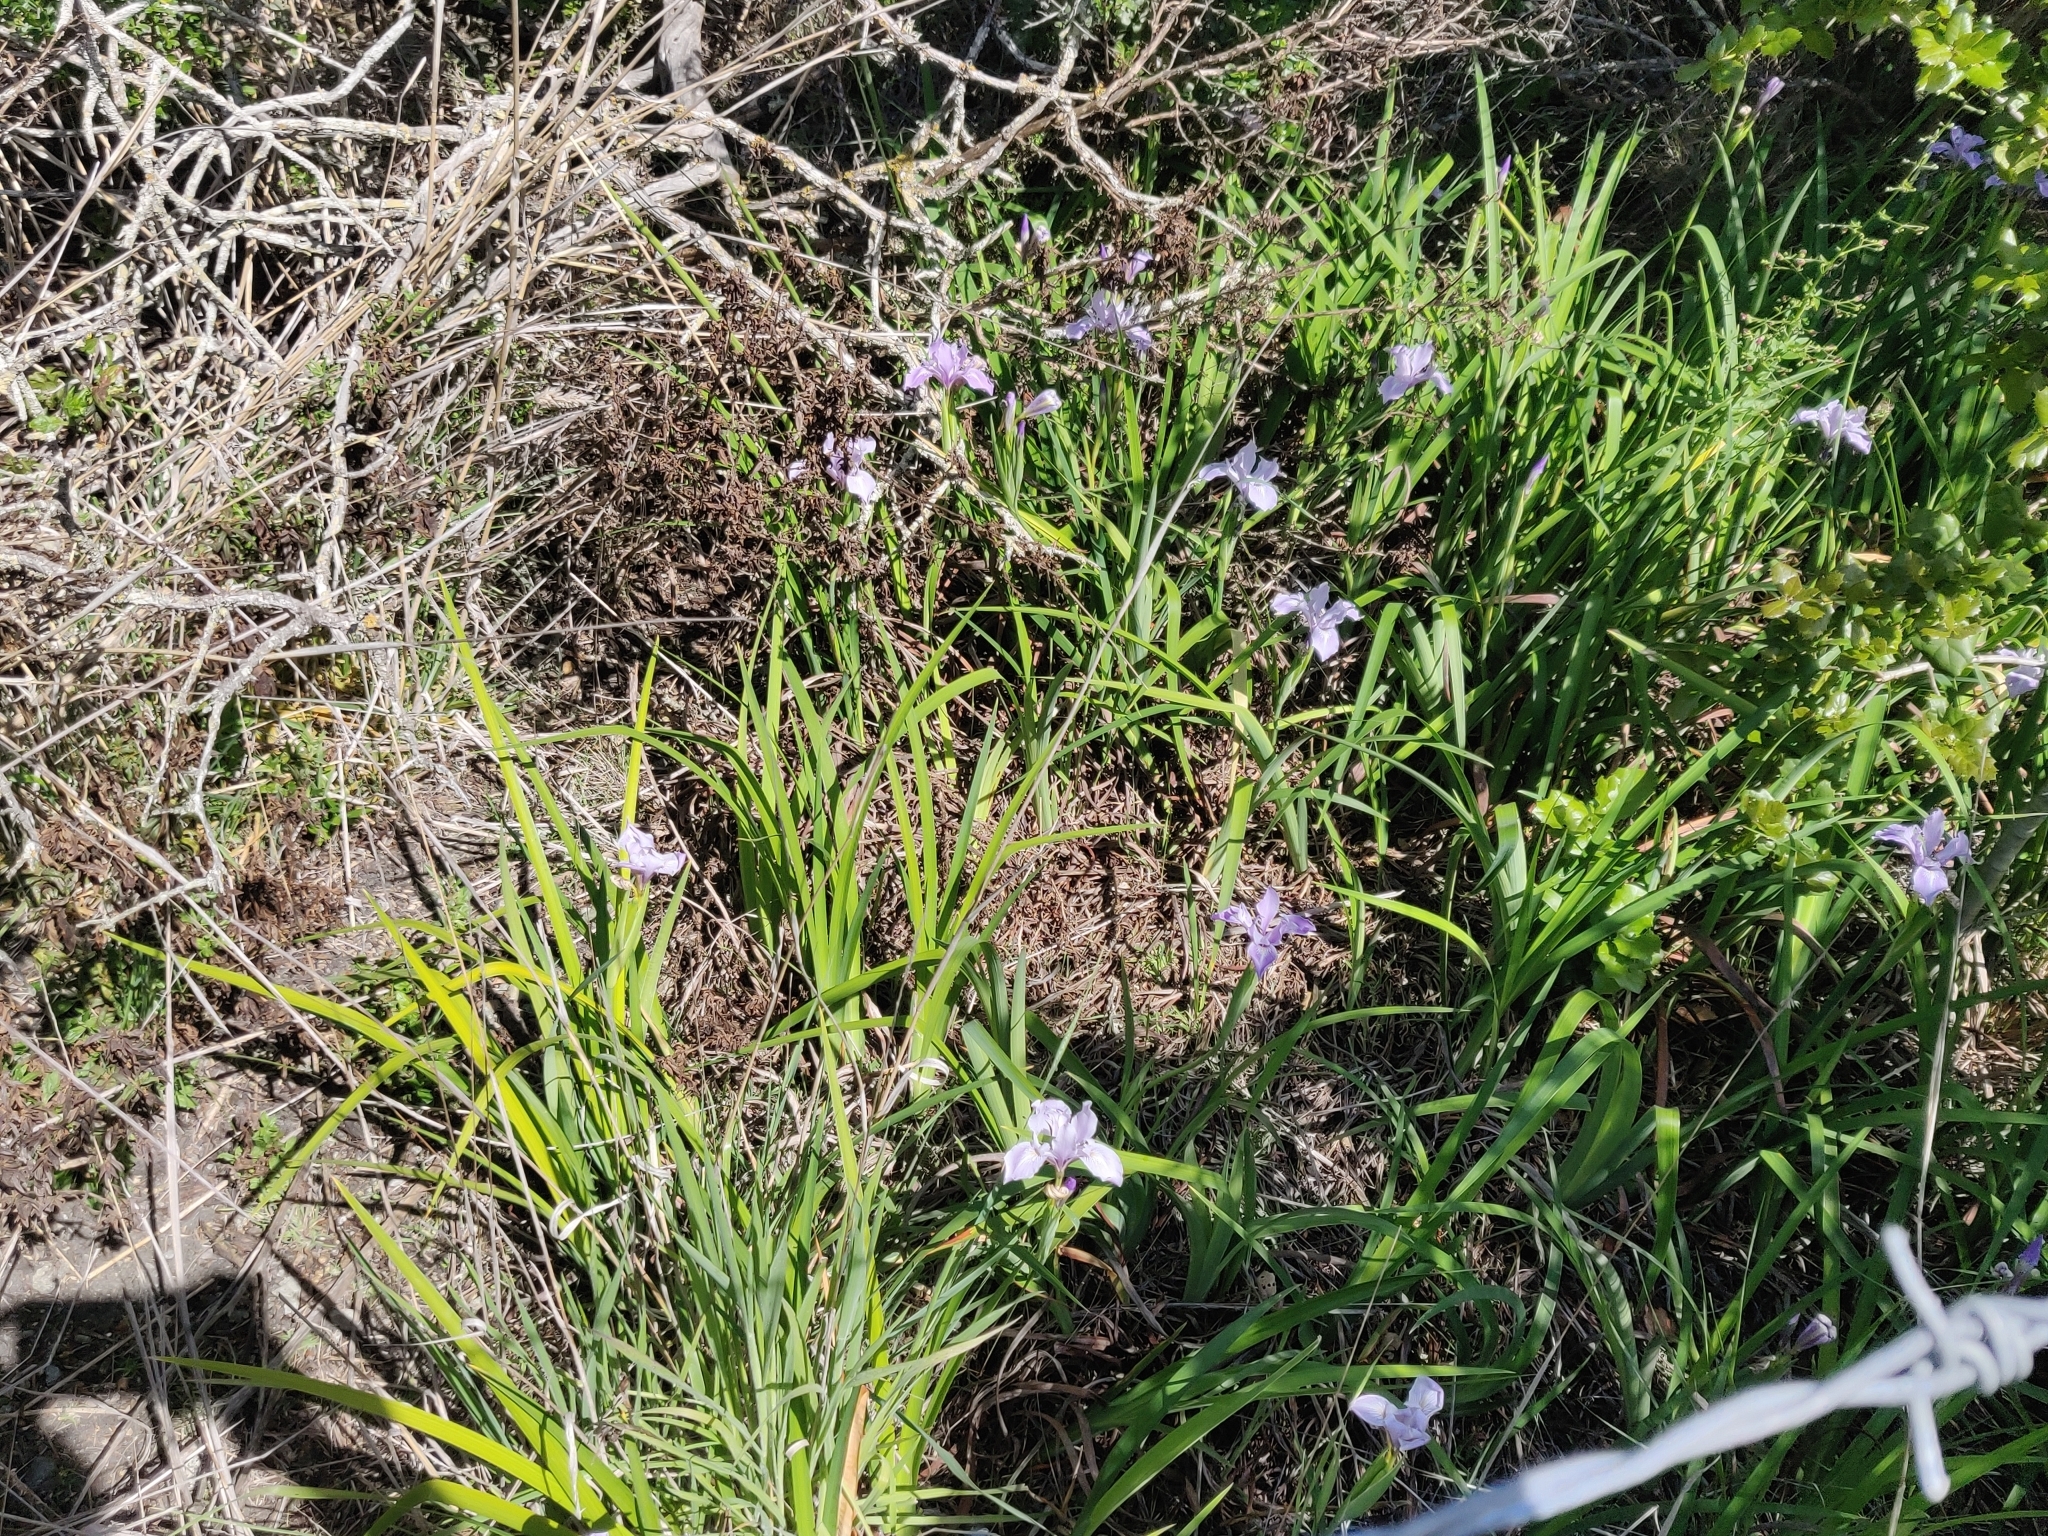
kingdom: Plantae
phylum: Tracheophyta
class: Liliopsida
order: Asparagales
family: Iridaceae
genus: Iris
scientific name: Iris douglasiana
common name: Marin iris
